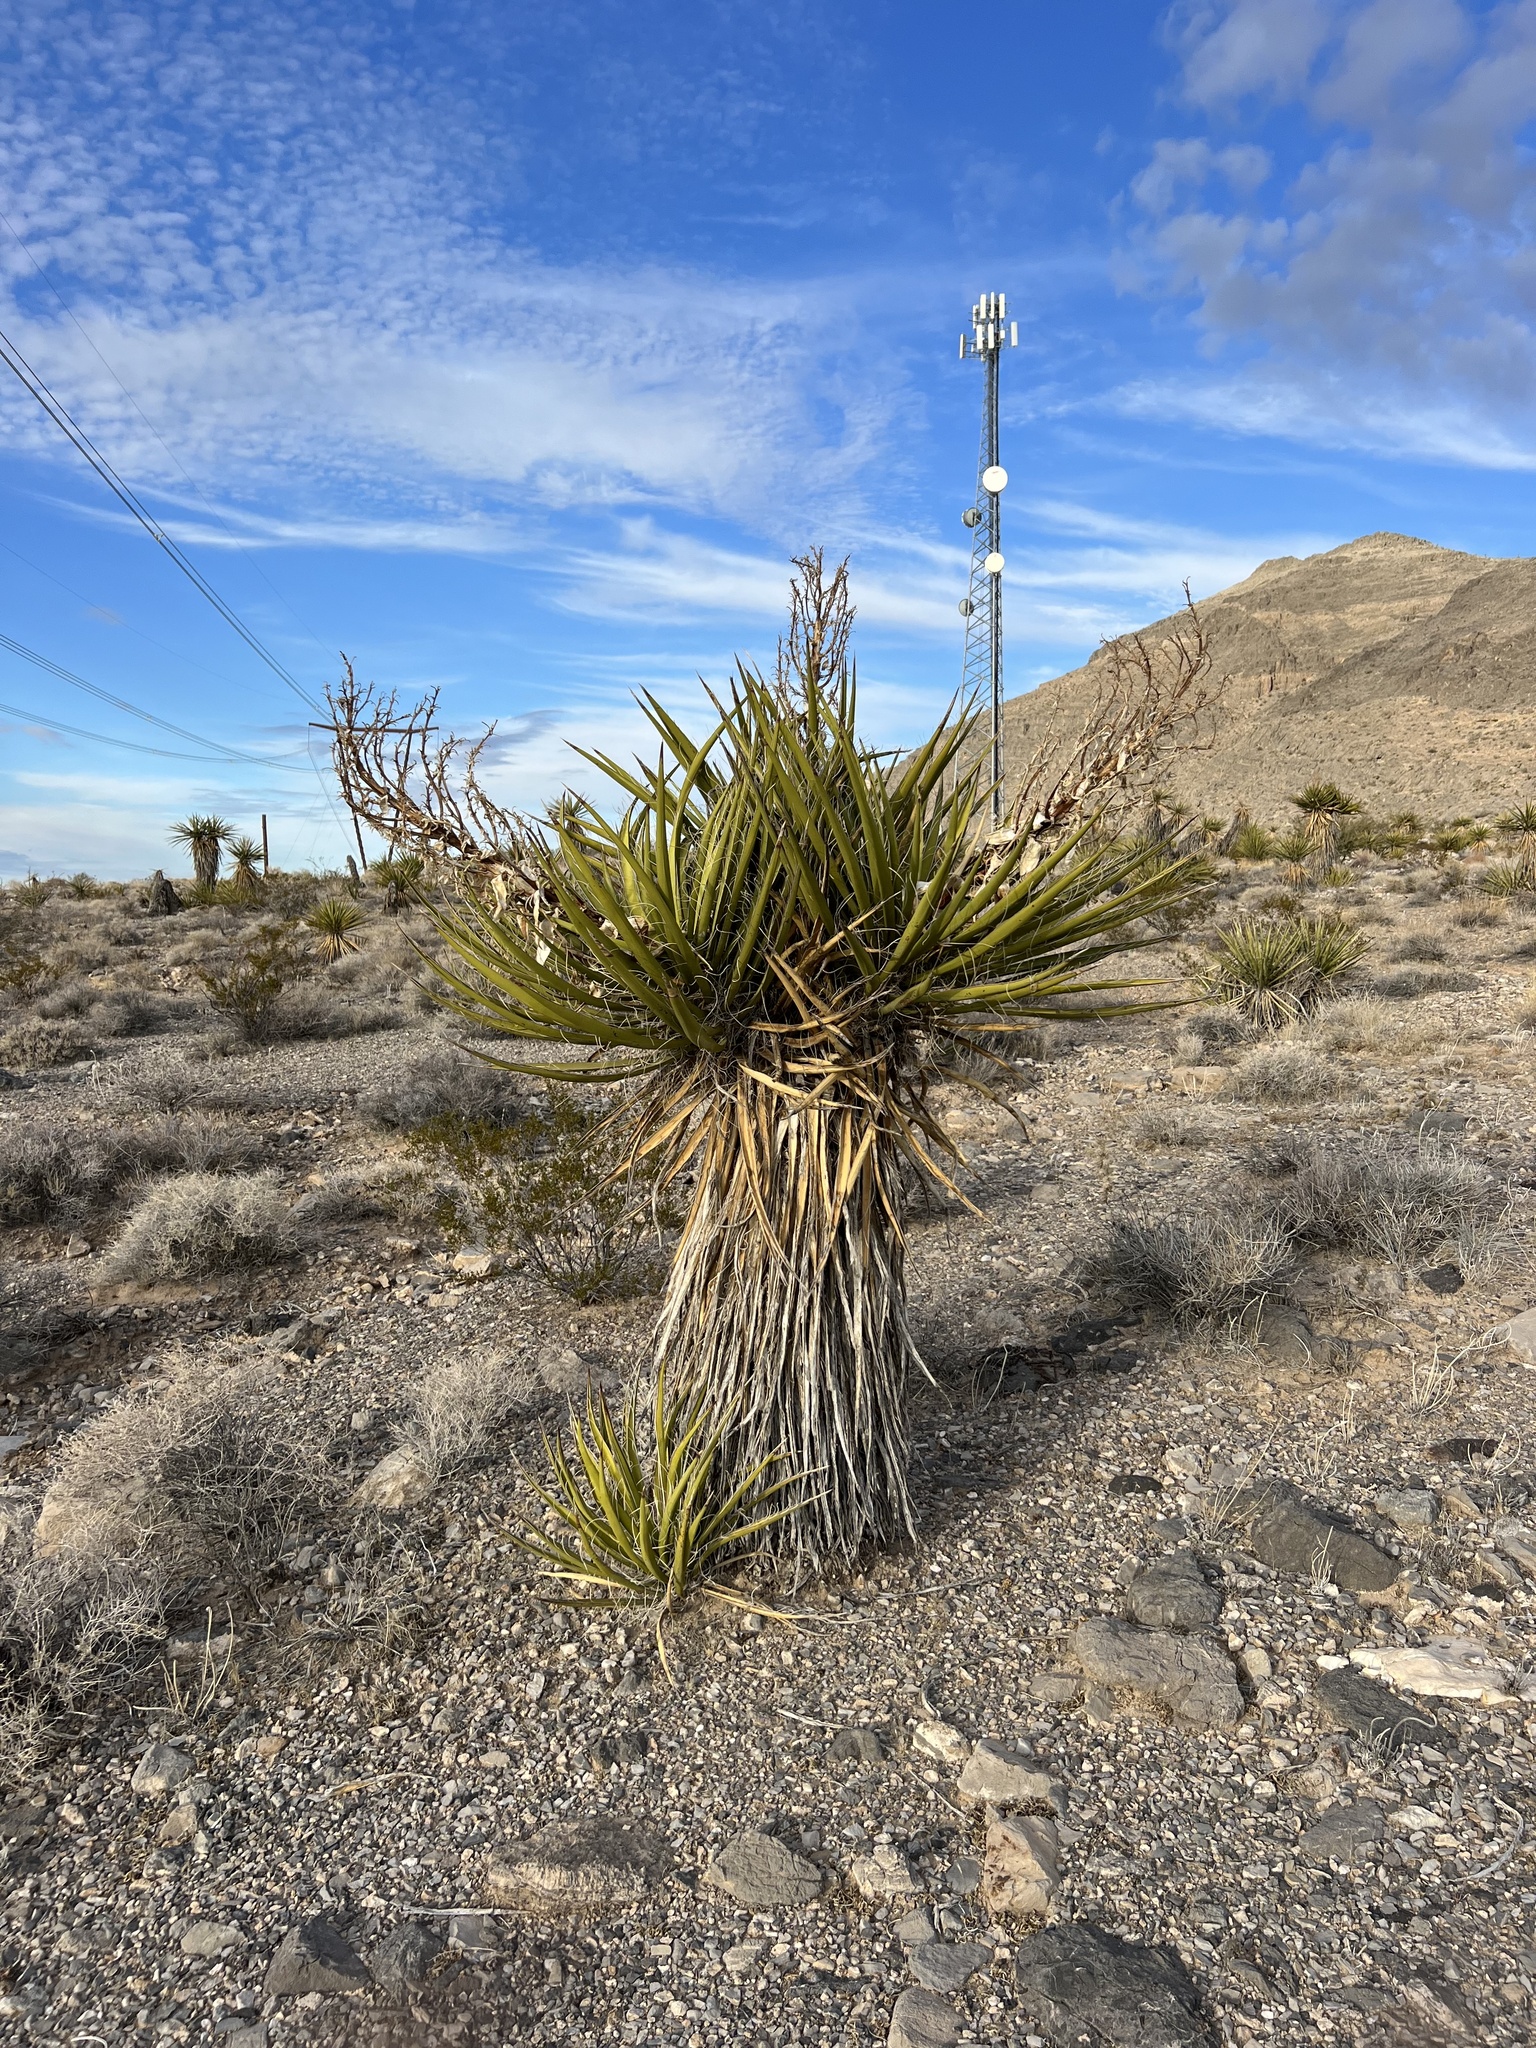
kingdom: Plantae
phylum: Tracheophyta
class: Liliopsida
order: Asparagales
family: Asparagaceae
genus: Yucca
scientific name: Yucca schidigera
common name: Mojave yucca
